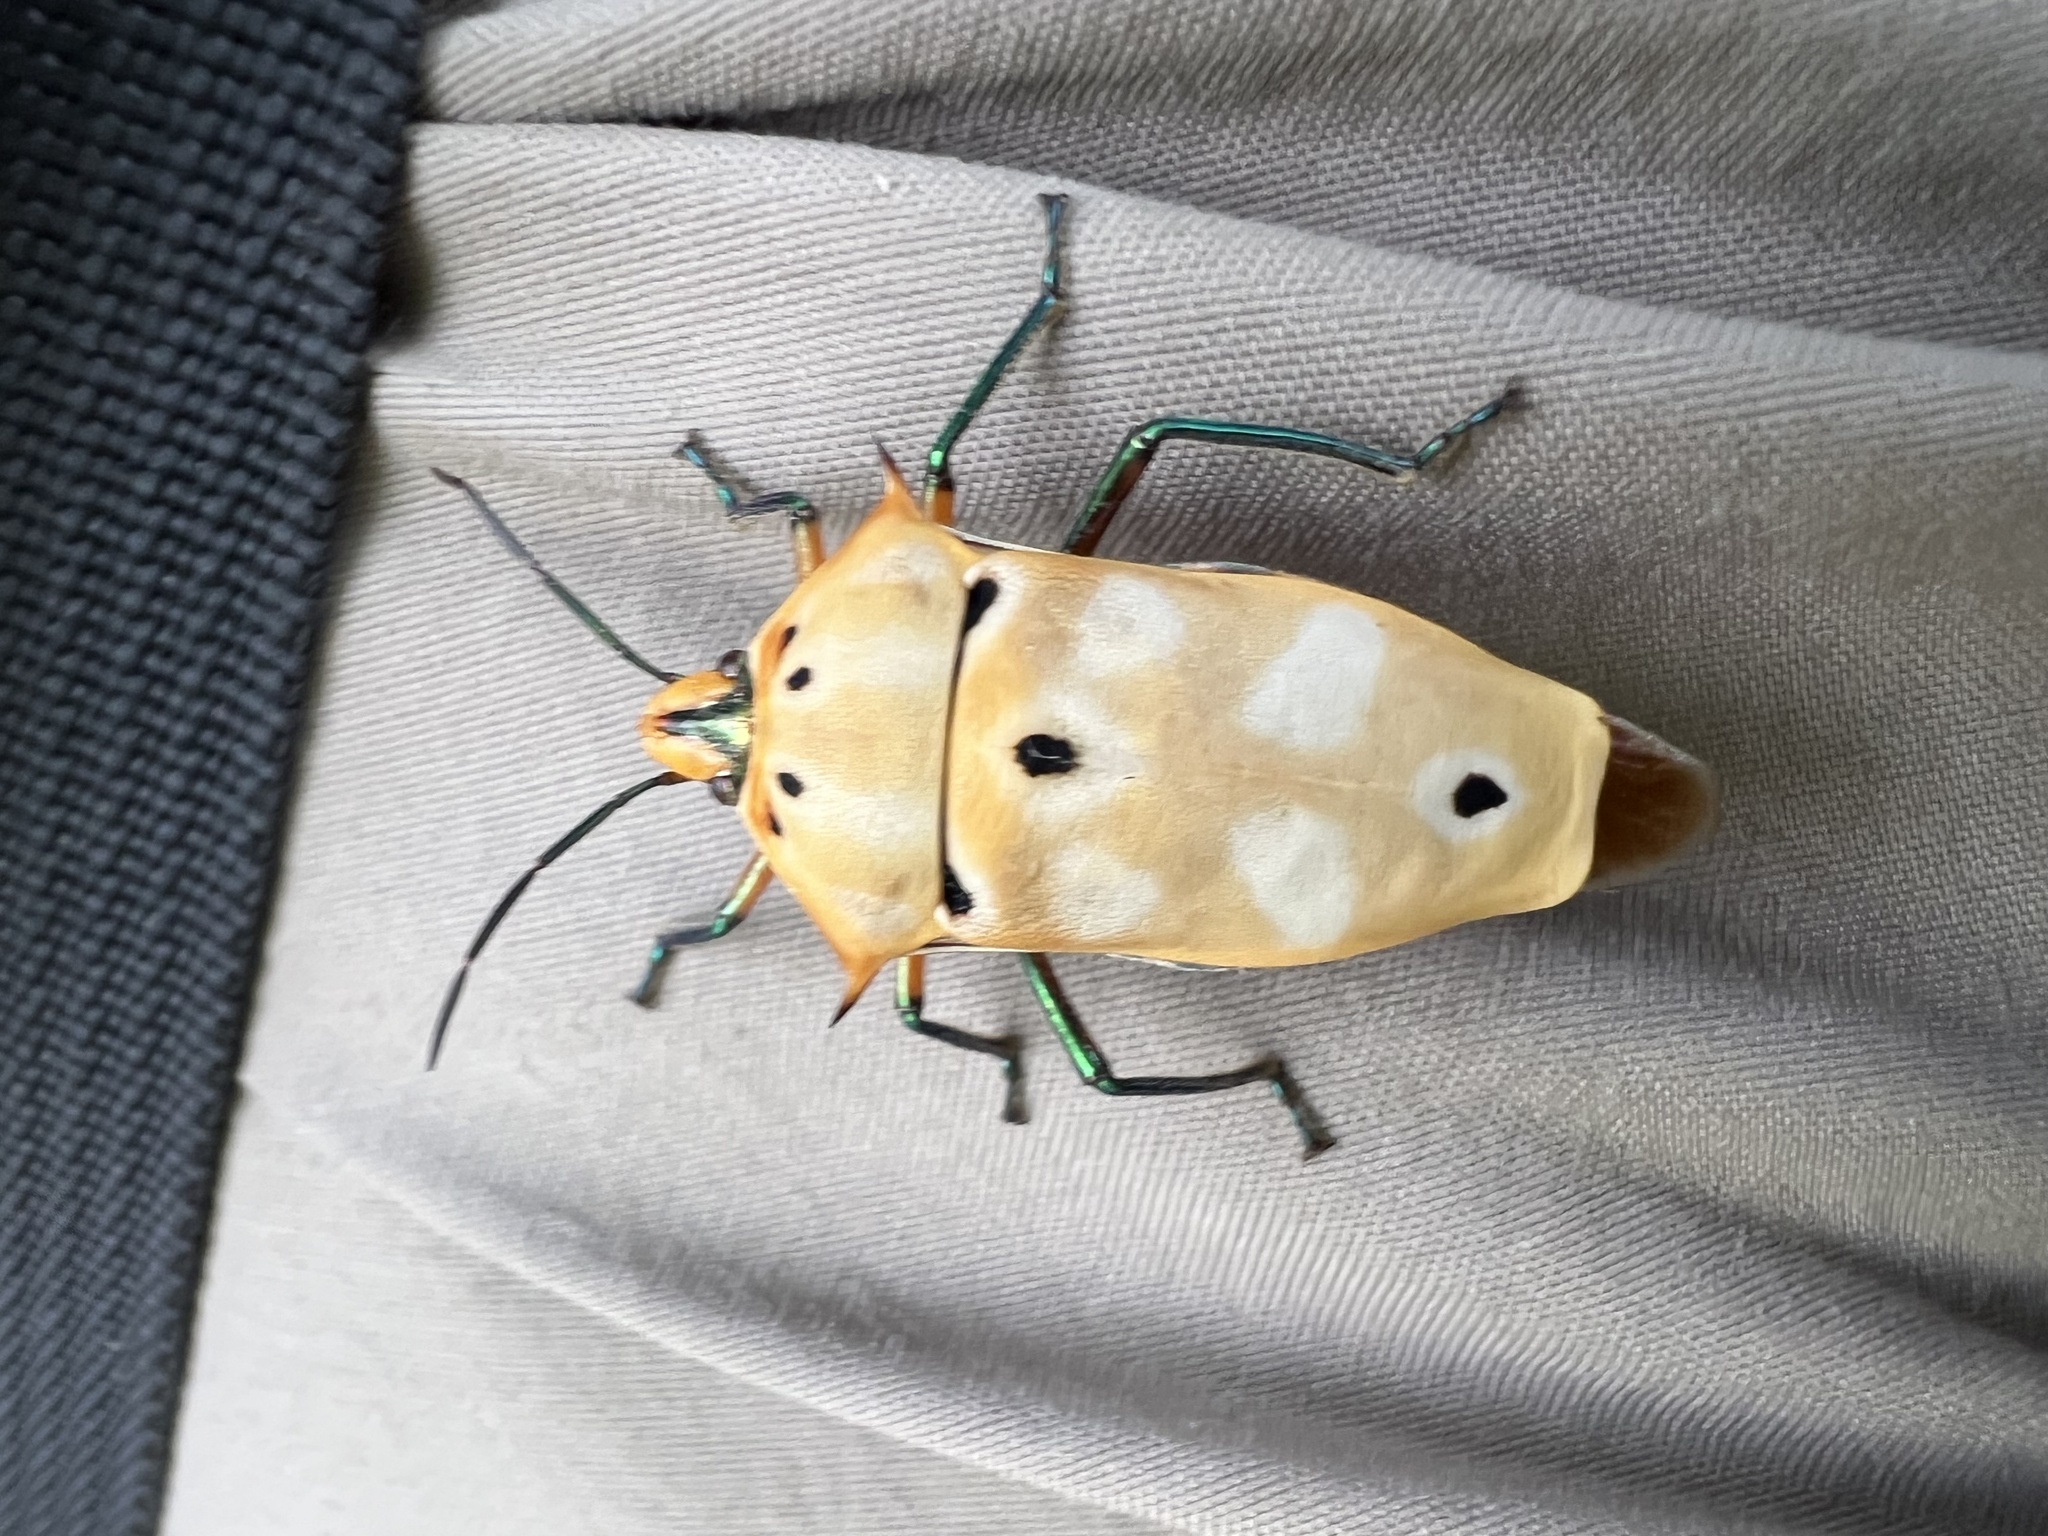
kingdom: Animalia
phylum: Arthropoda
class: Insecta
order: Hemiptera
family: Scutelleridae
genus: Cantao
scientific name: Cantao ocellatus
